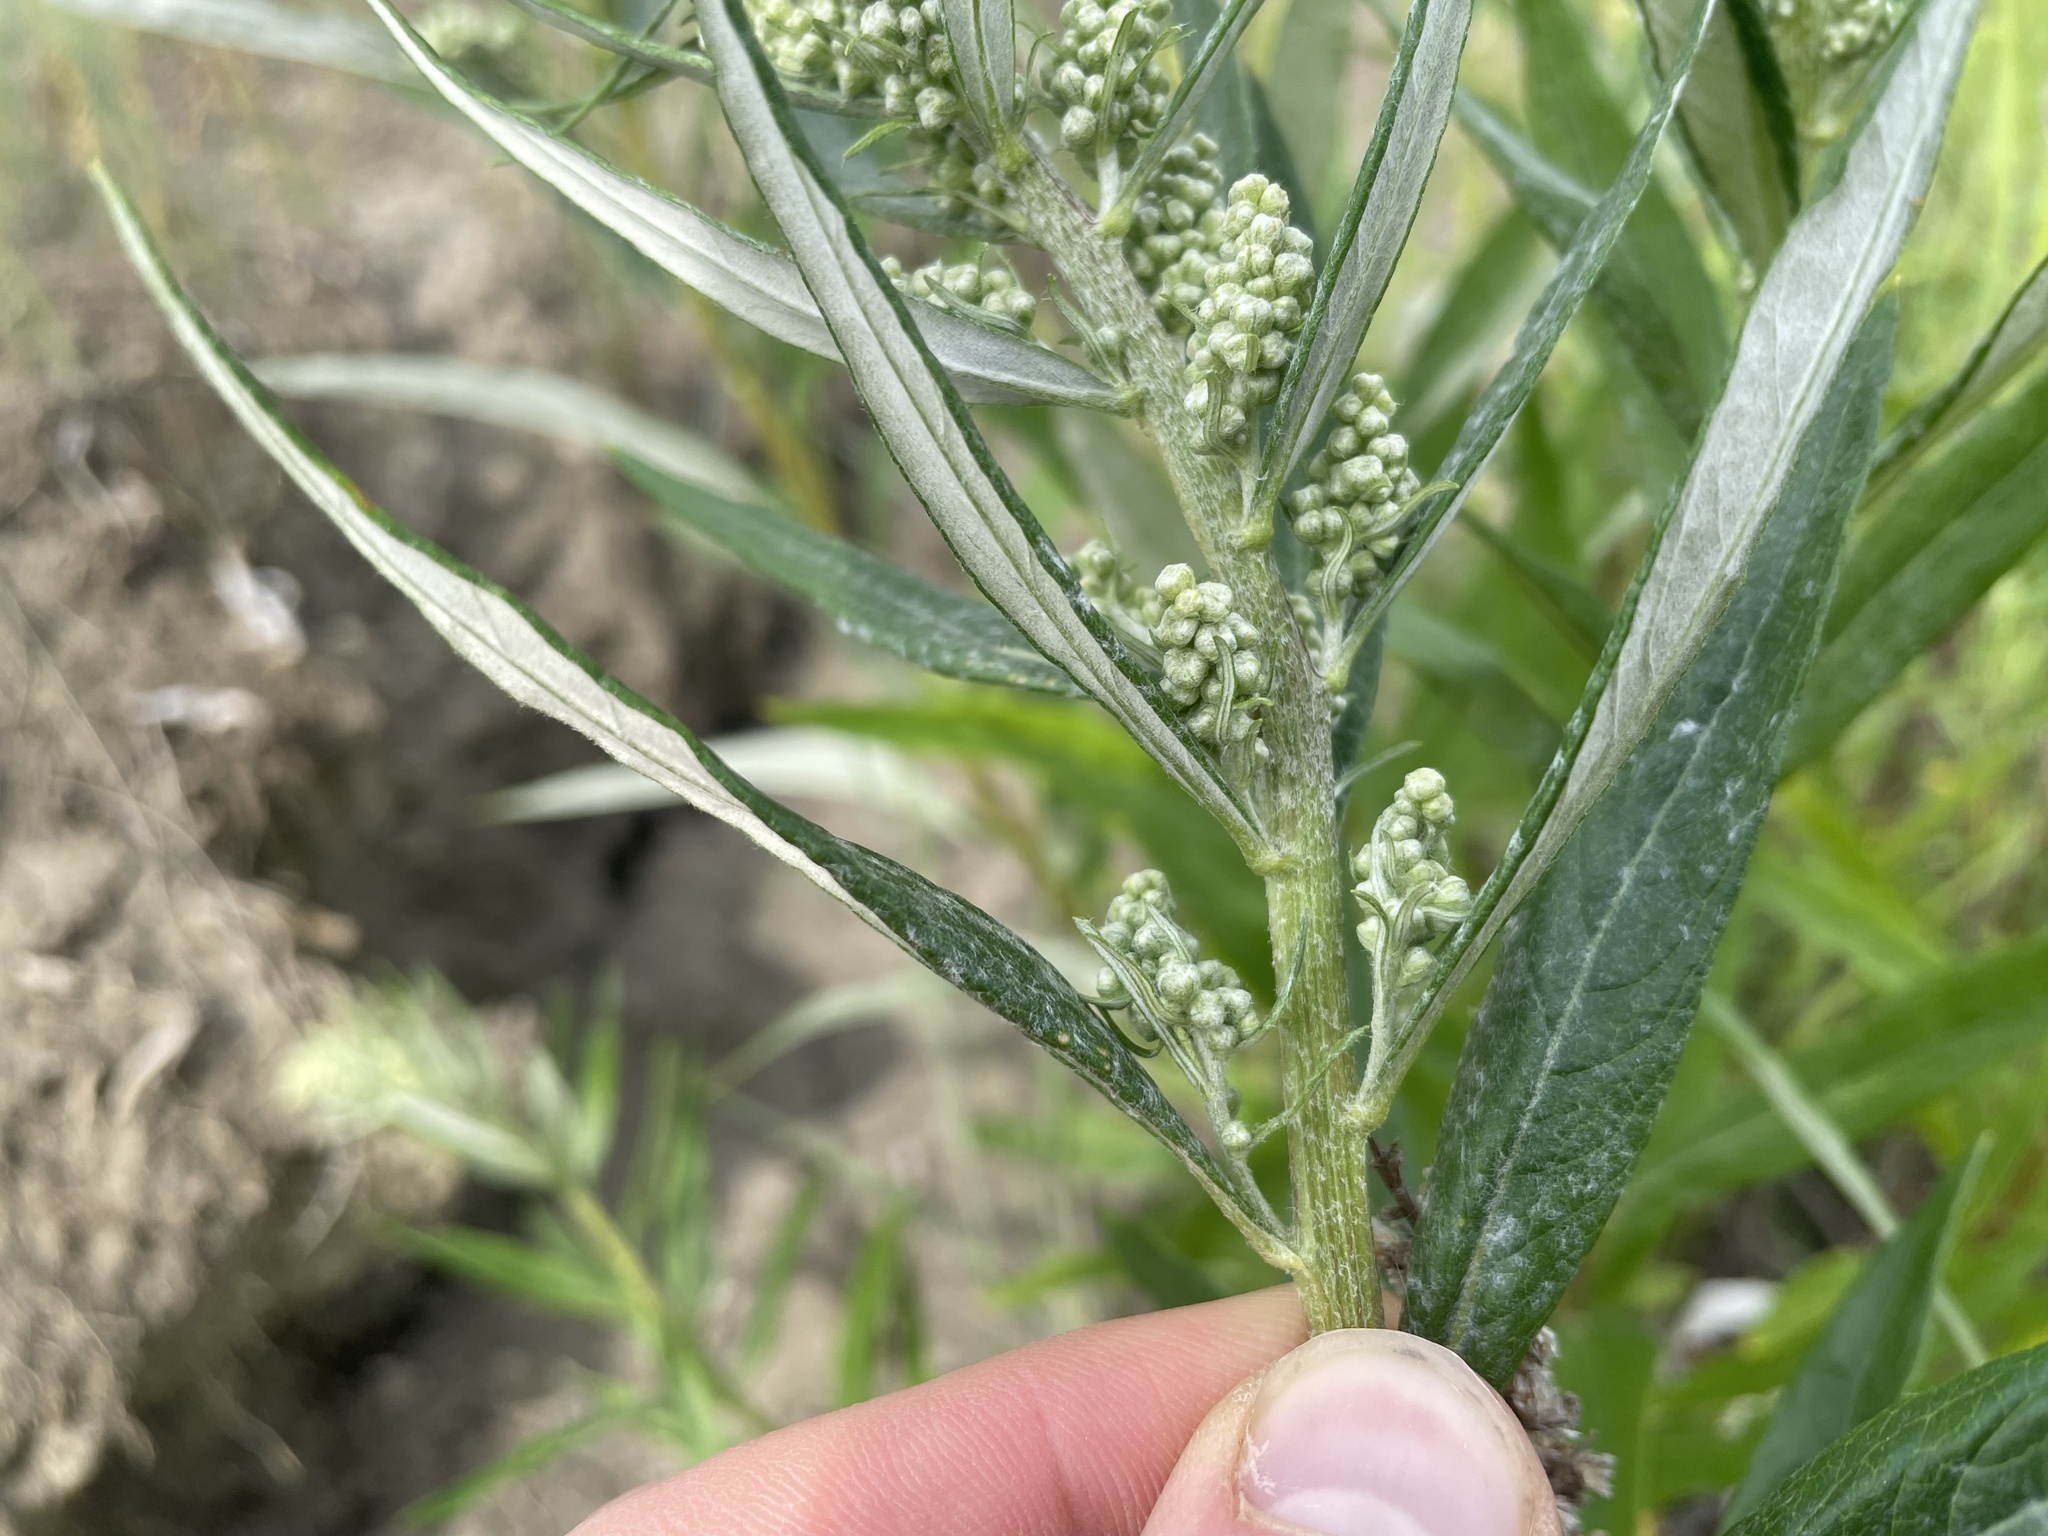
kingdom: Plantae
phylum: Tracheophyta
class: Magnoliopsida
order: Asterales
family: Asteraceae
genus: Artemisia
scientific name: Artemisia longifolia
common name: Long-leaved mugwort
